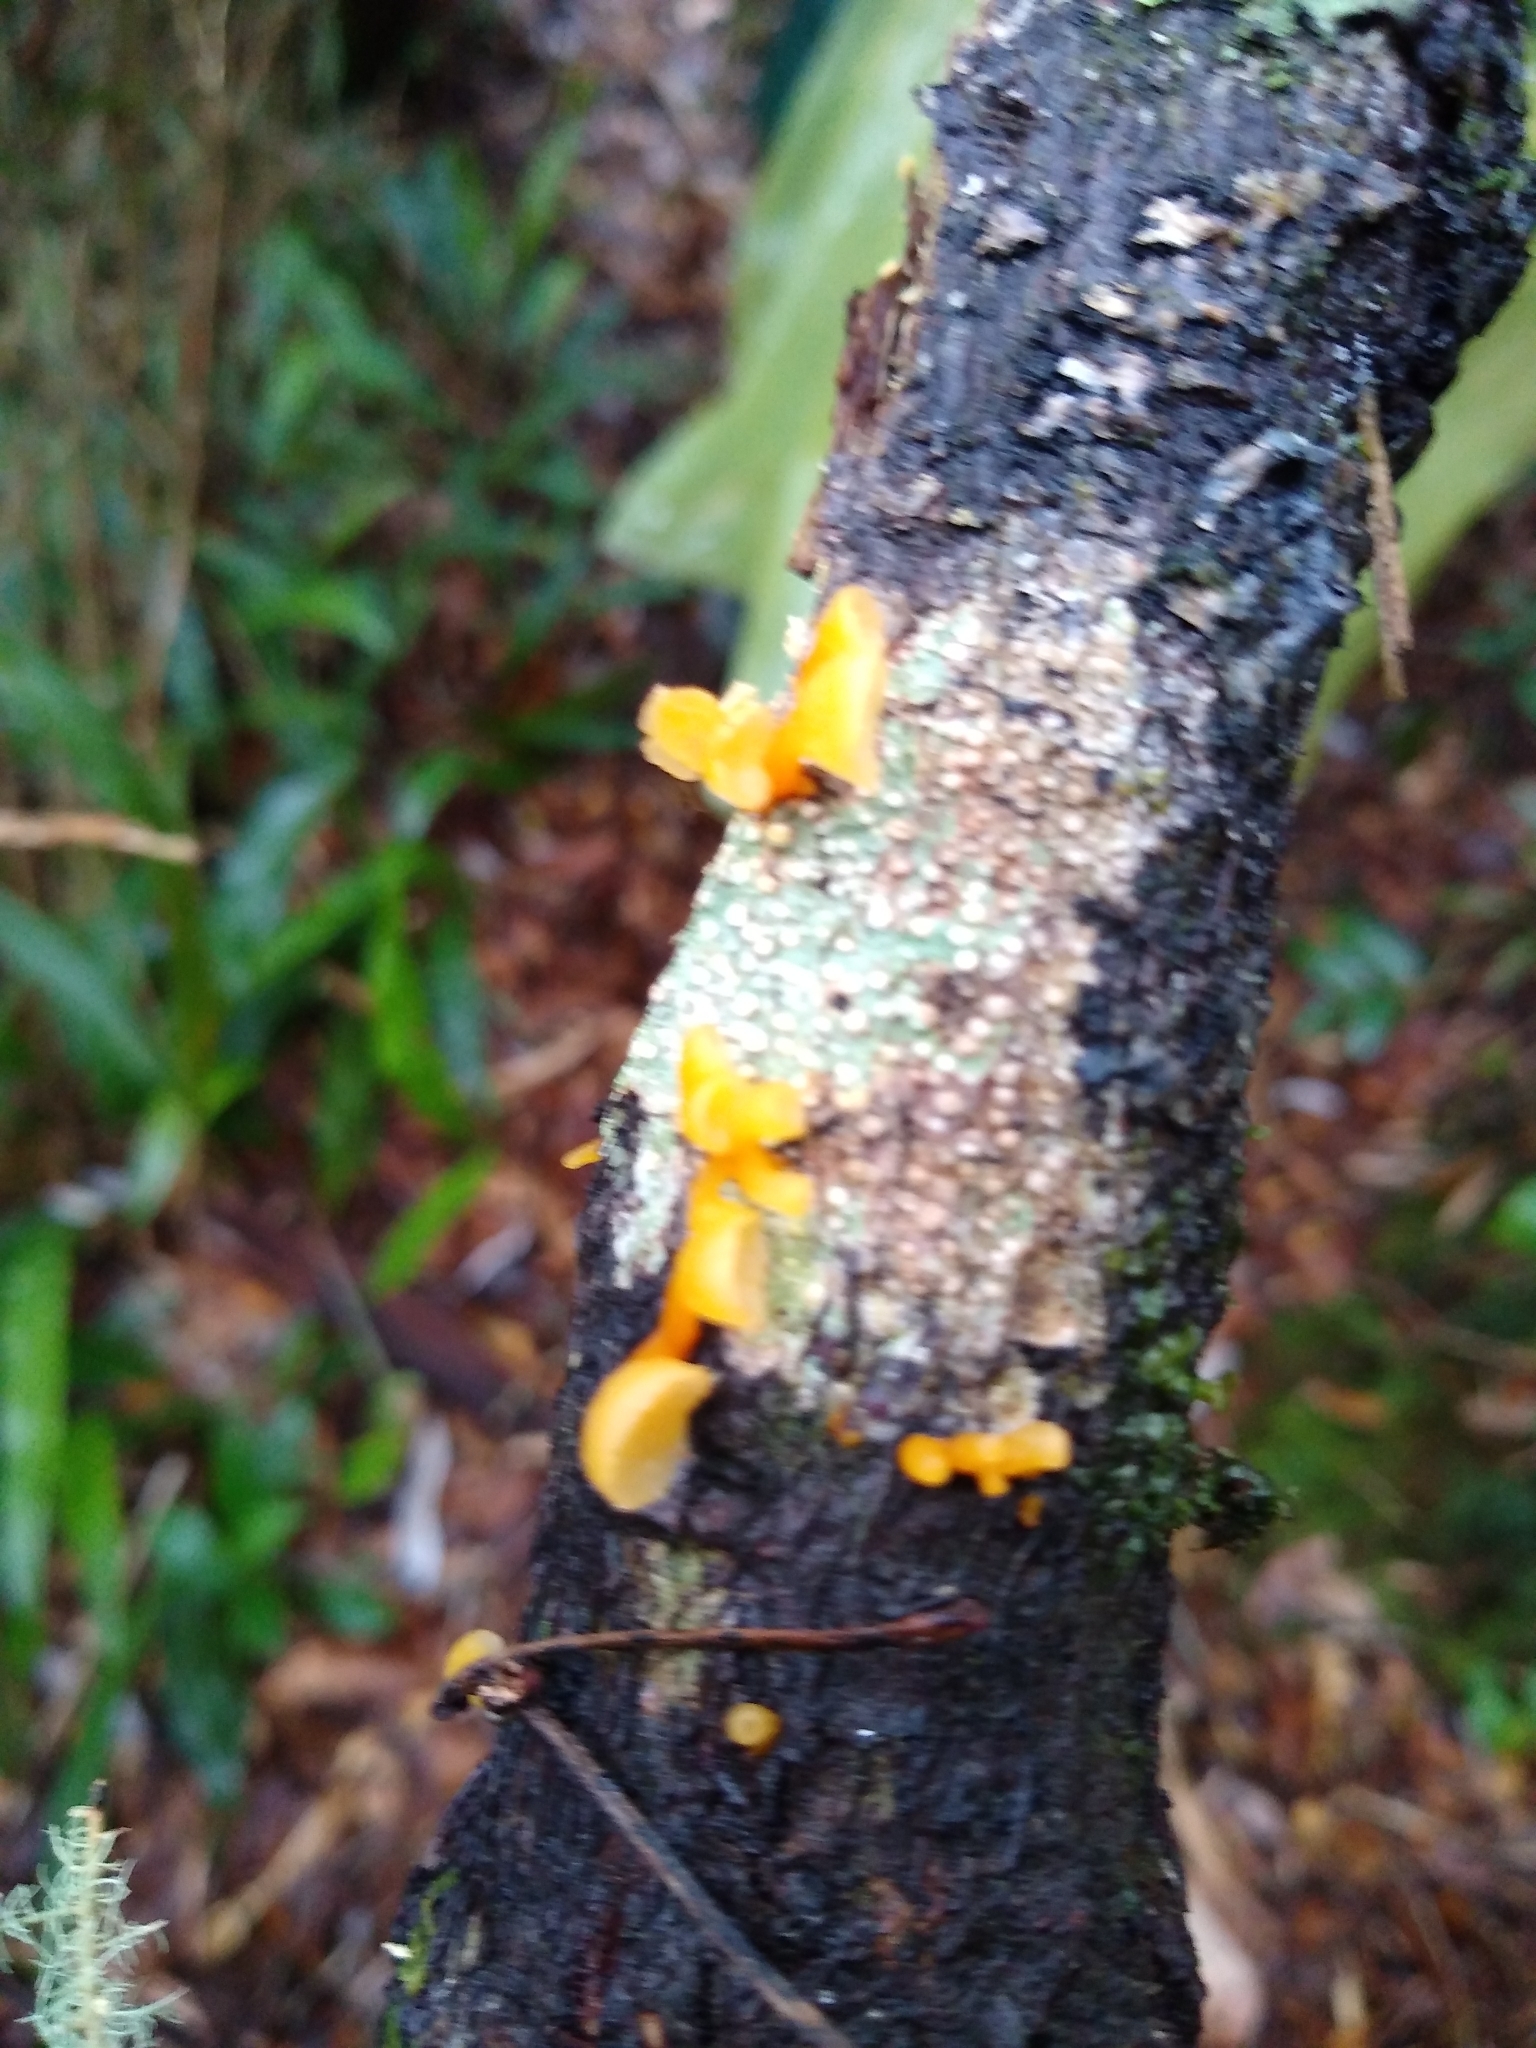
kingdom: Fungi
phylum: Basidiomycota
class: Dacrymycetes
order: Dacrymycetales
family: Dacrymycetaceae
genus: Guepiniopsis
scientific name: Guepiniopsis buccina
